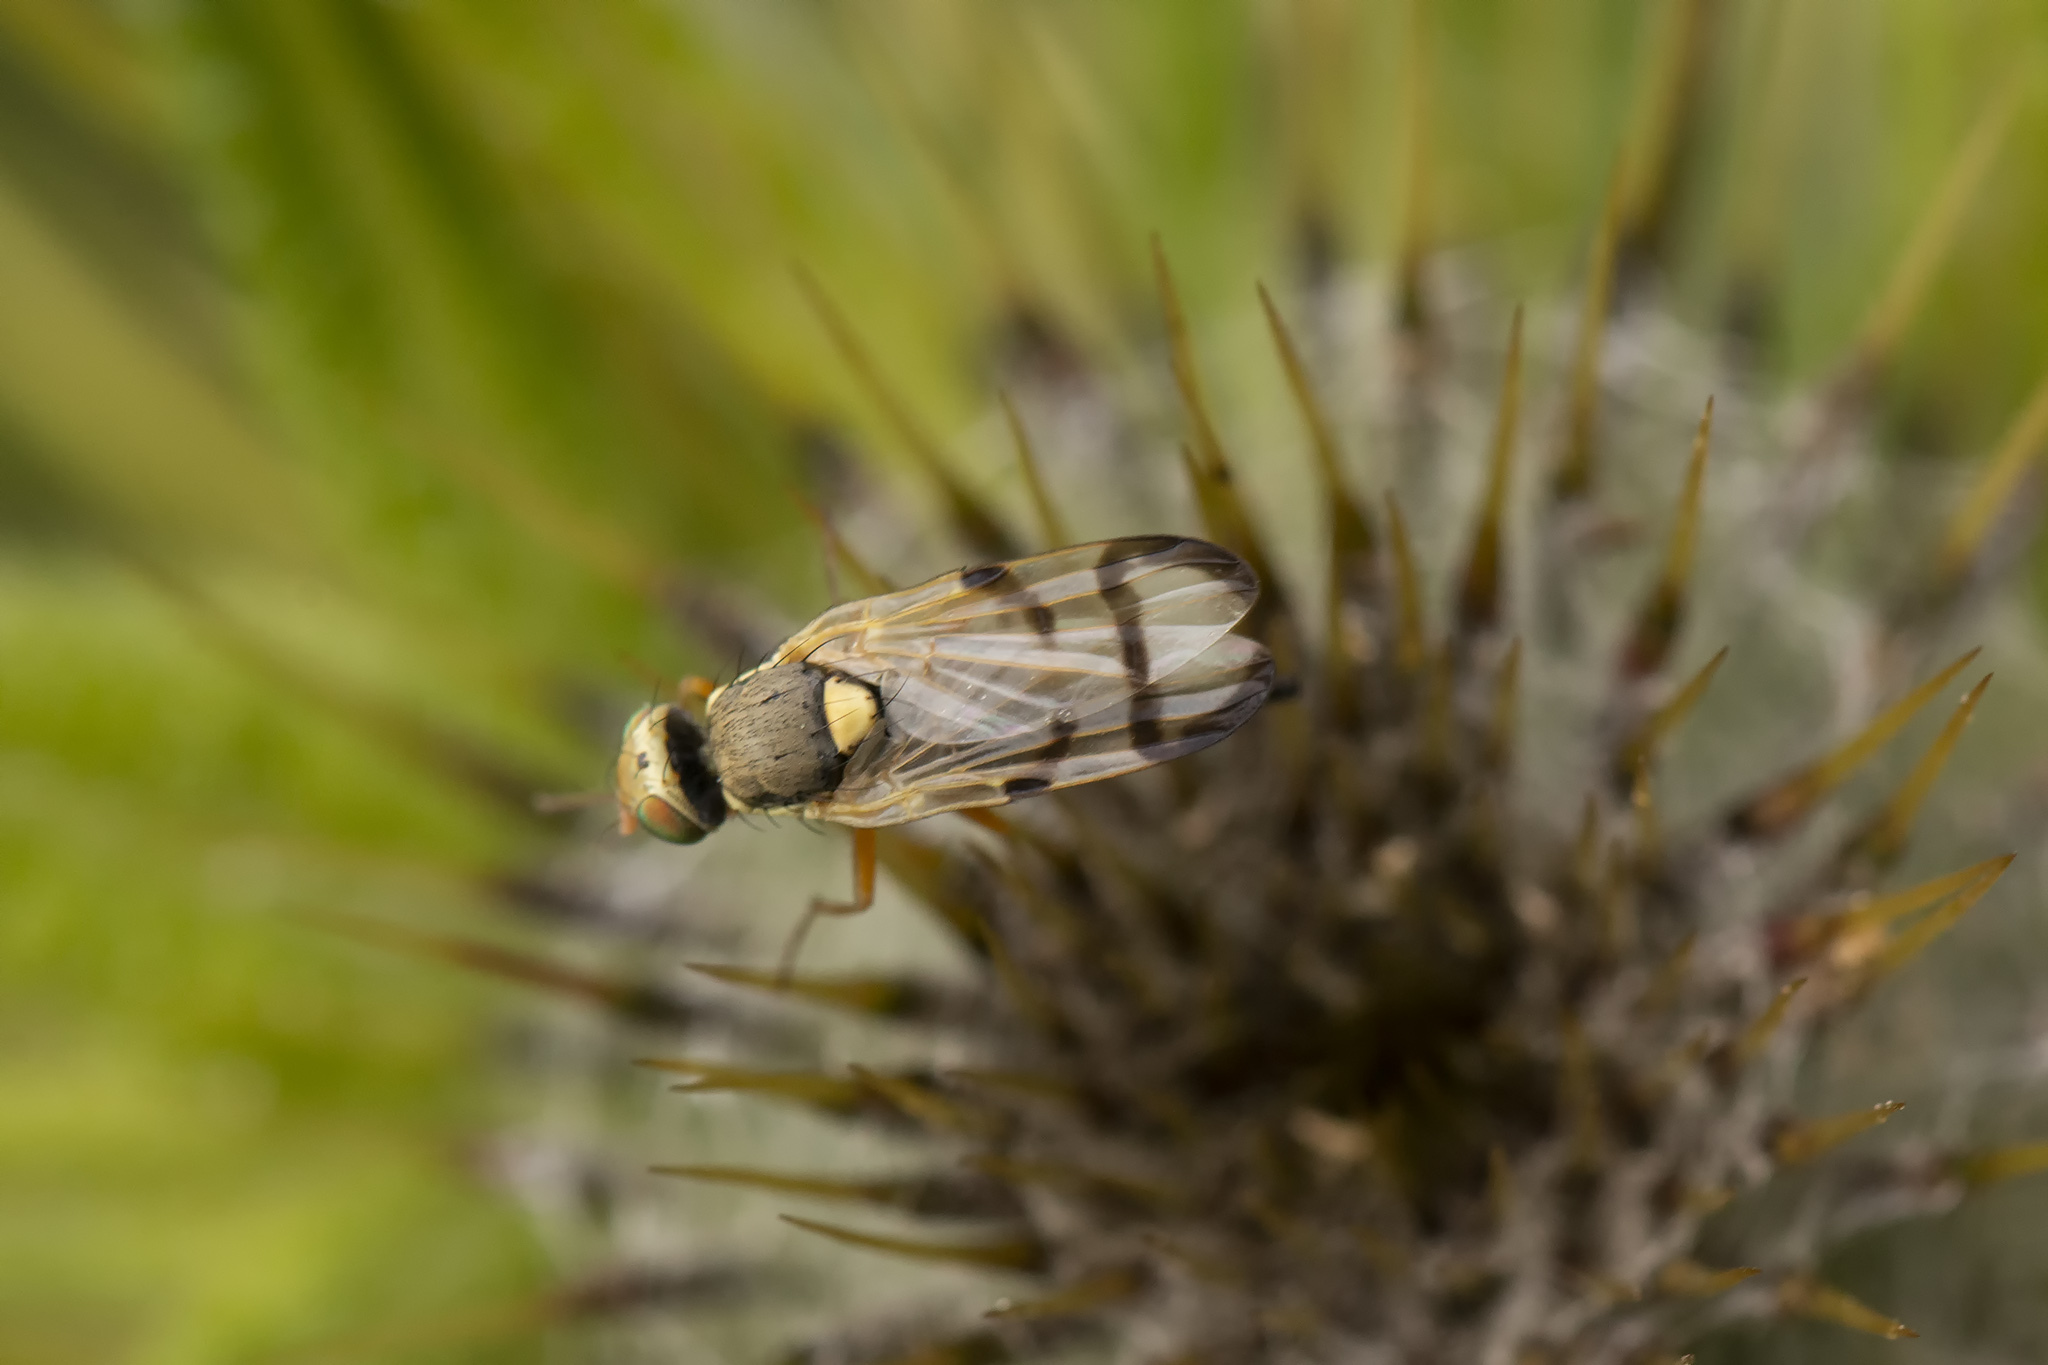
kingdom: Animalia
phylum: Arthropoda
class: Insecta
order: Diptera
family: Tephritidae
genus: Urophora
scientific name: Urophora stylata
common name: Fruit fly
